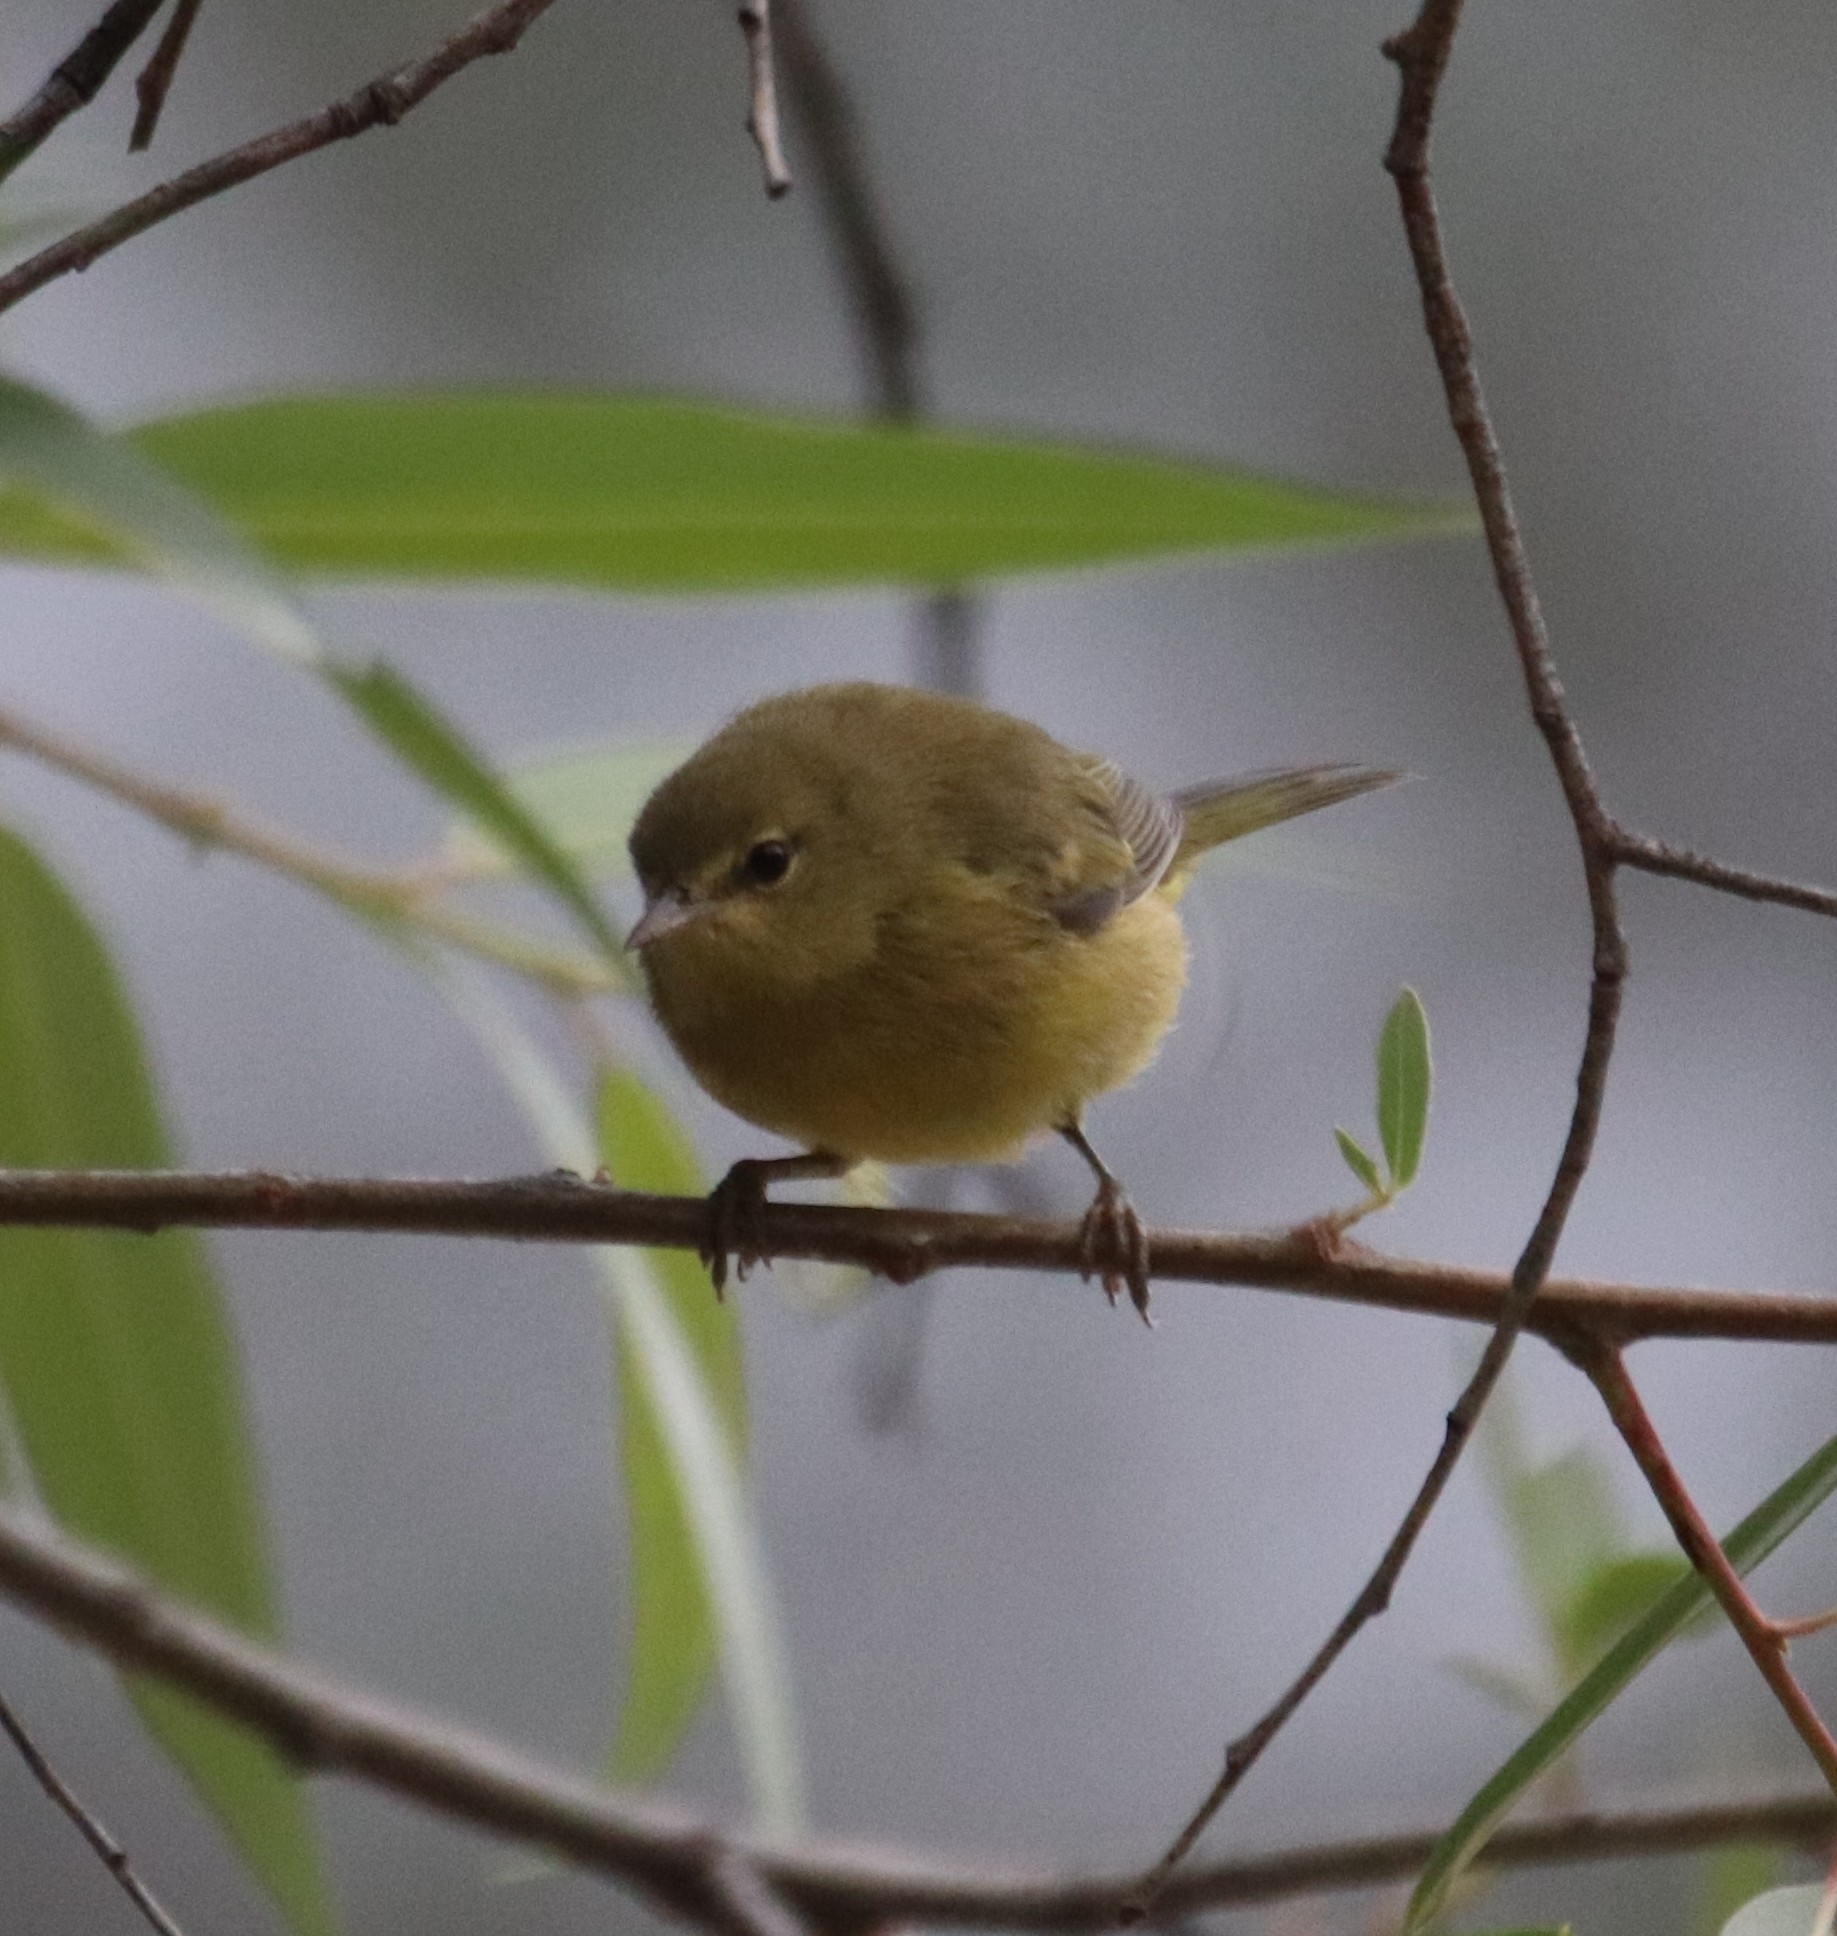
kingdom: Animalia
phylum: Chordata
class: Aves
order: Passeriformes
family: Parulidae
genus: Leiothlypis
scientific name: Leiothlypis celata
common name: Orange-crowned warbler
